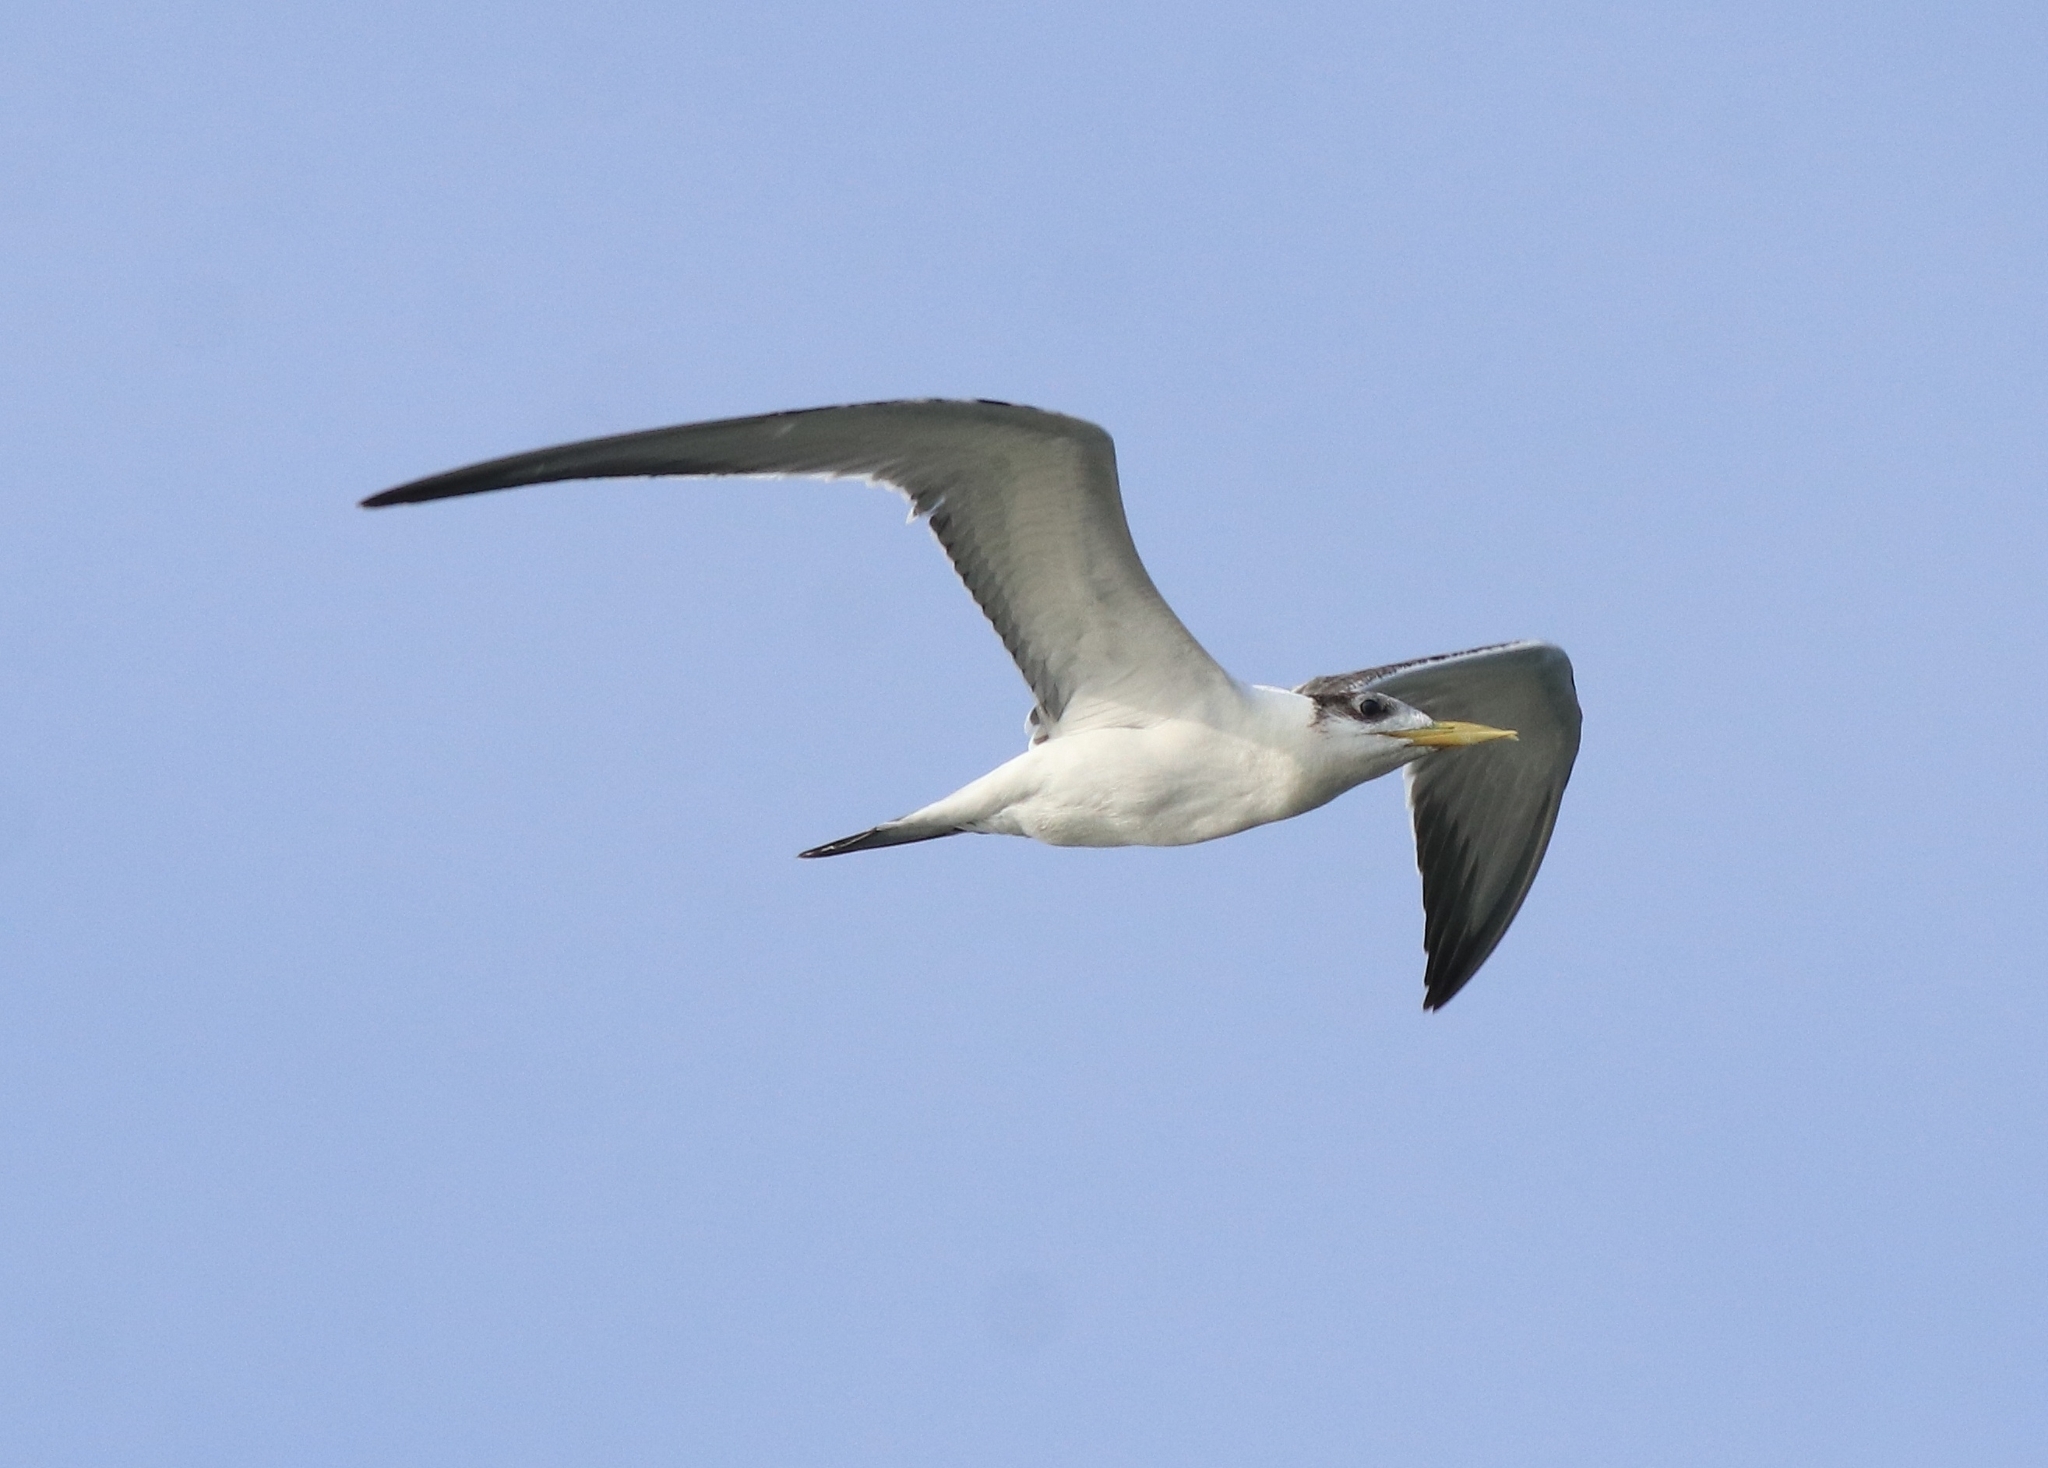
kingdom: Animalia
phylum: Chordata
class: Aves
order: Charadriiformes
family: Laridae
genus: Thalasseus
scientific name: Thalasseus bergii
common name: Greater crested tern
